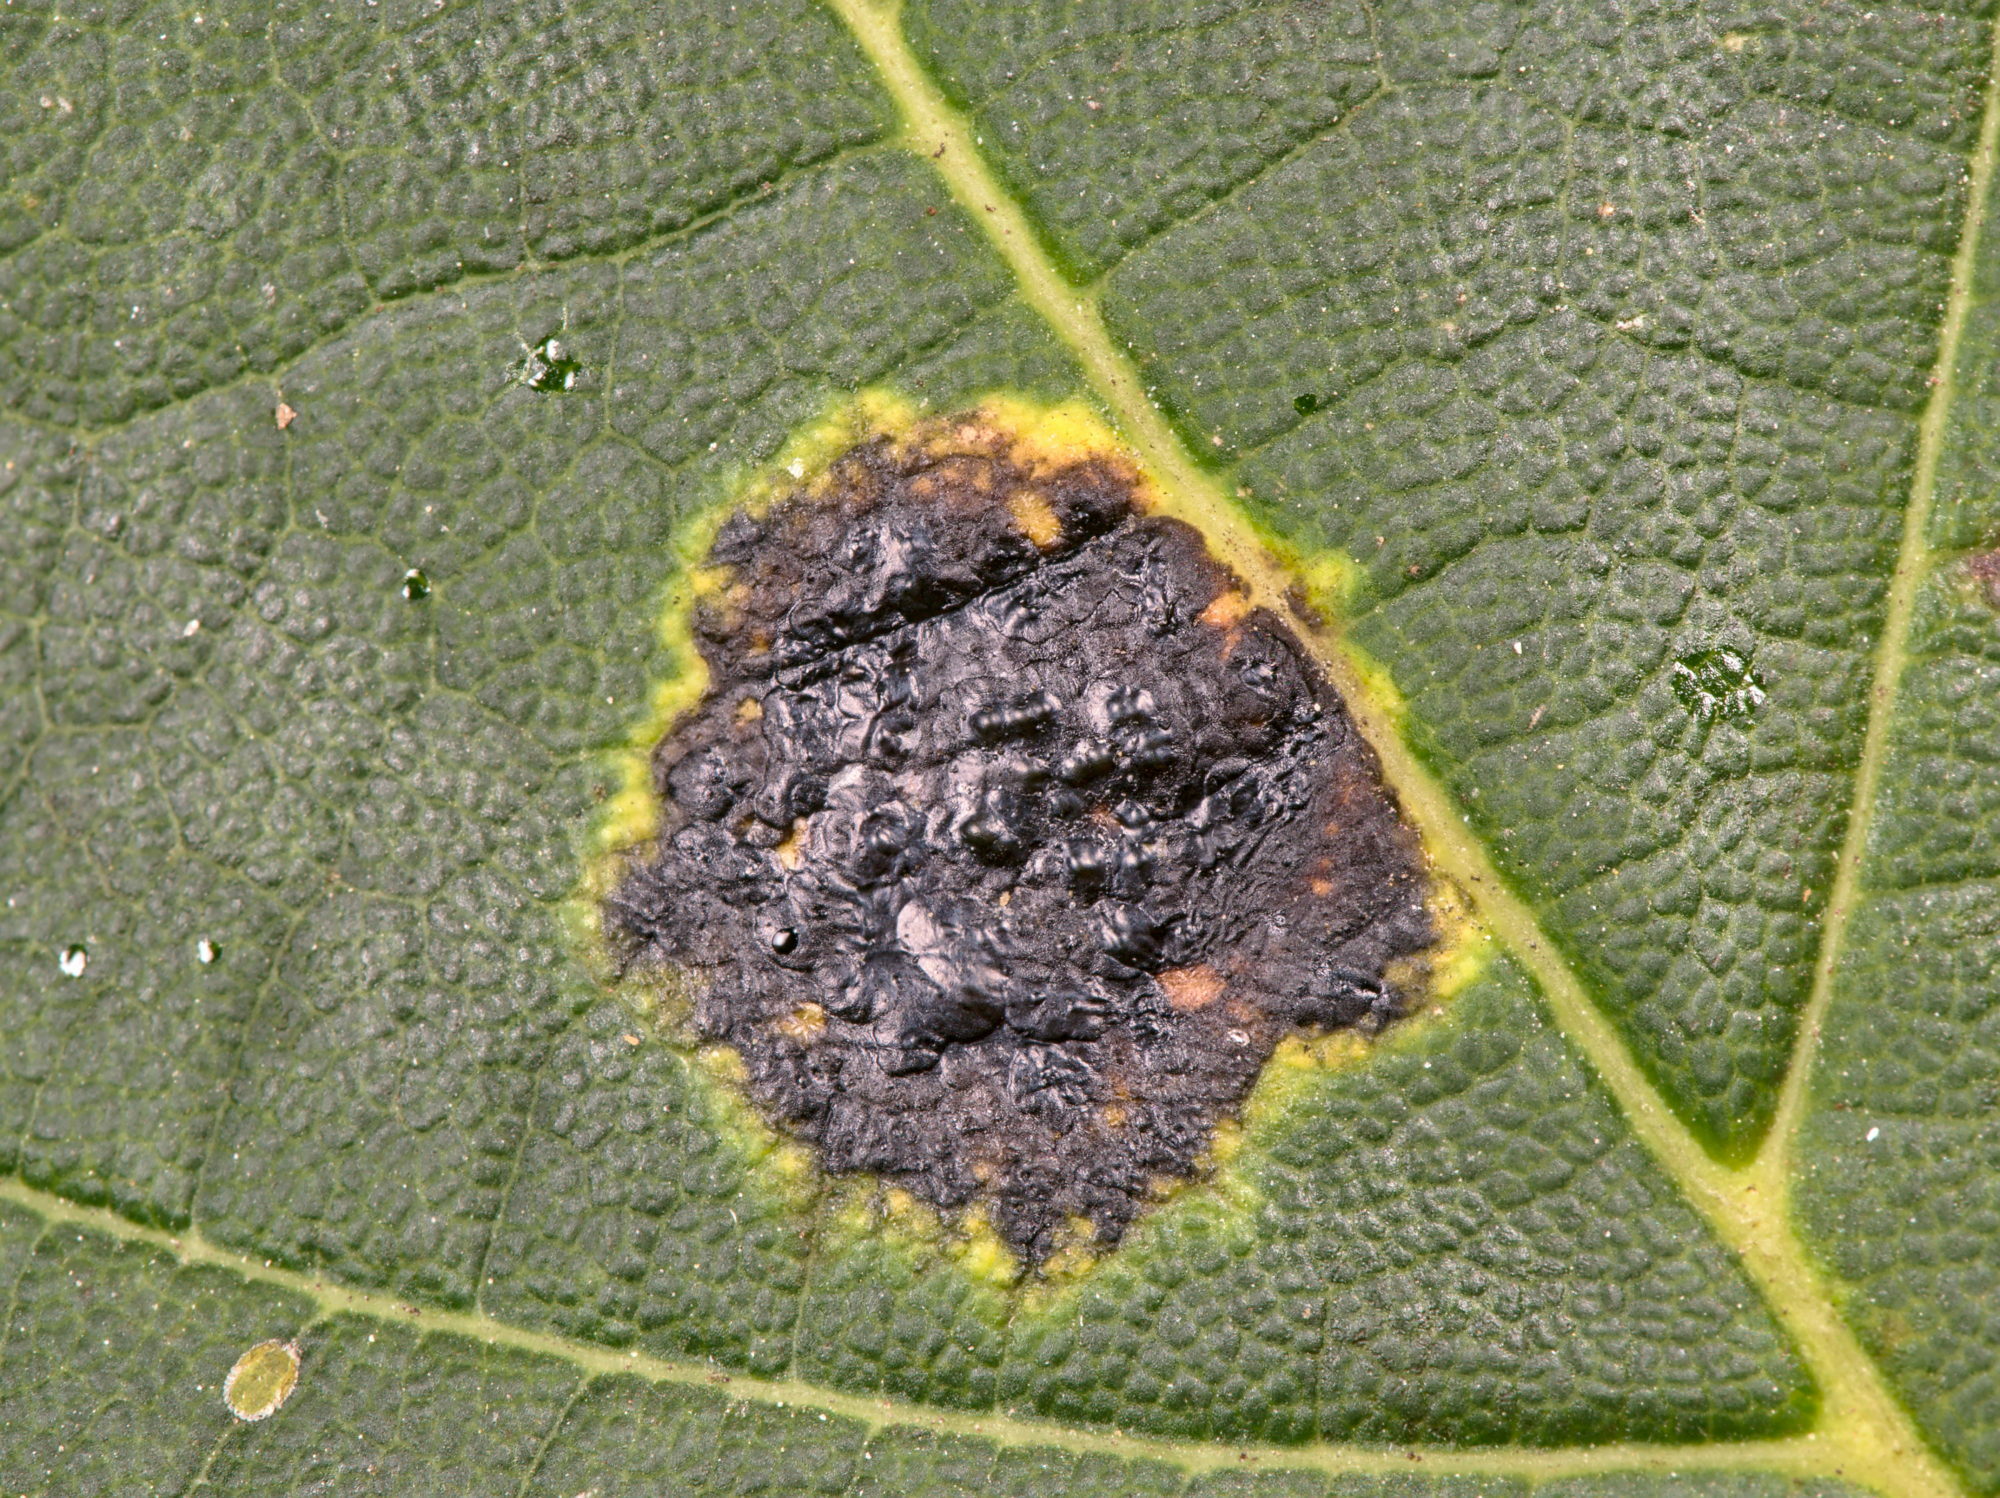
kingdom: Fungi
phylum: Ascomycota
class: Leotiomycetes
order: Rhytismatales
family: Rhytismataceae
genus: Rhytisma
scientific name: Rhytisma acerinum
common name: European tar spot
